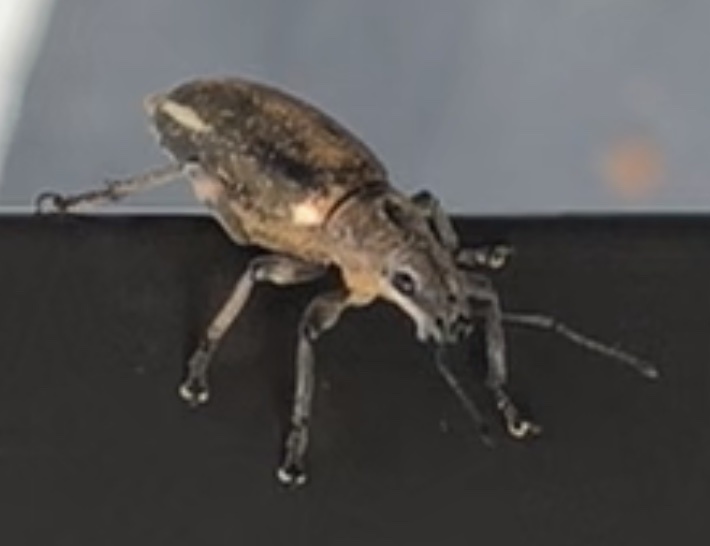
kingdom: Animalia
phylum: Arthropoda
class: Insecta
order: Coleoptera
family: Curculionidae
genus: Brachyderes
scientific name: Brachyderes lusitanicus
